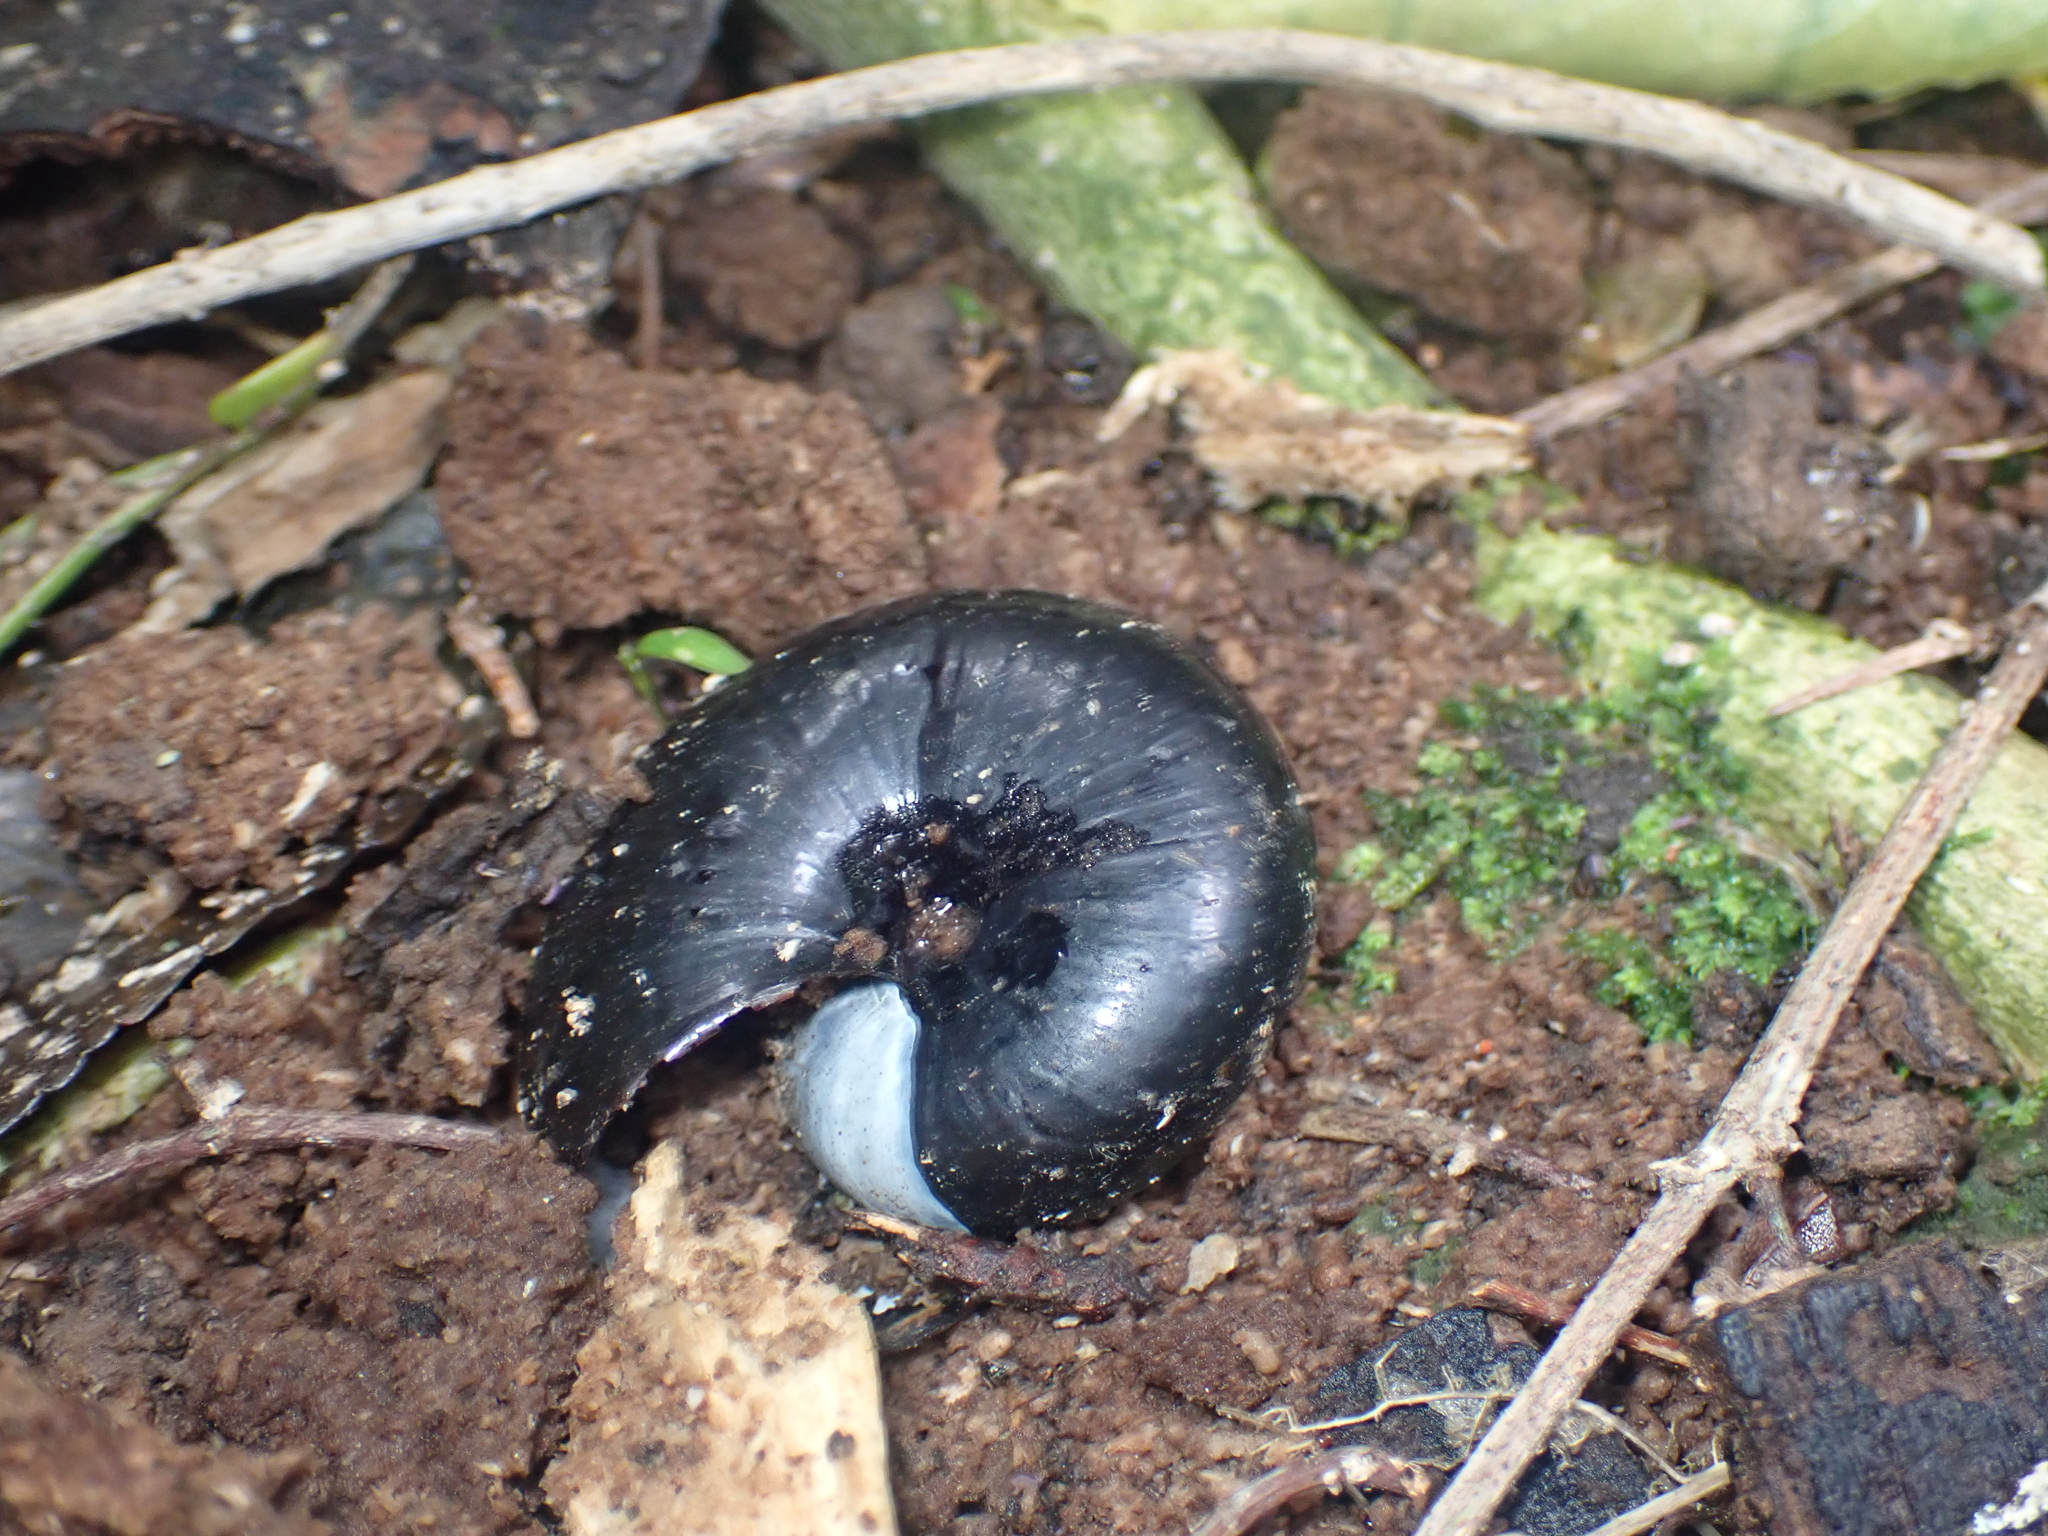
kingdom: Animalia
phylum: Mollusca
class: Gastropoda
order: Stylommatophora
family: Rhytididae
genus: Powelliphanta
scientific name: Powelliphanta traversi
